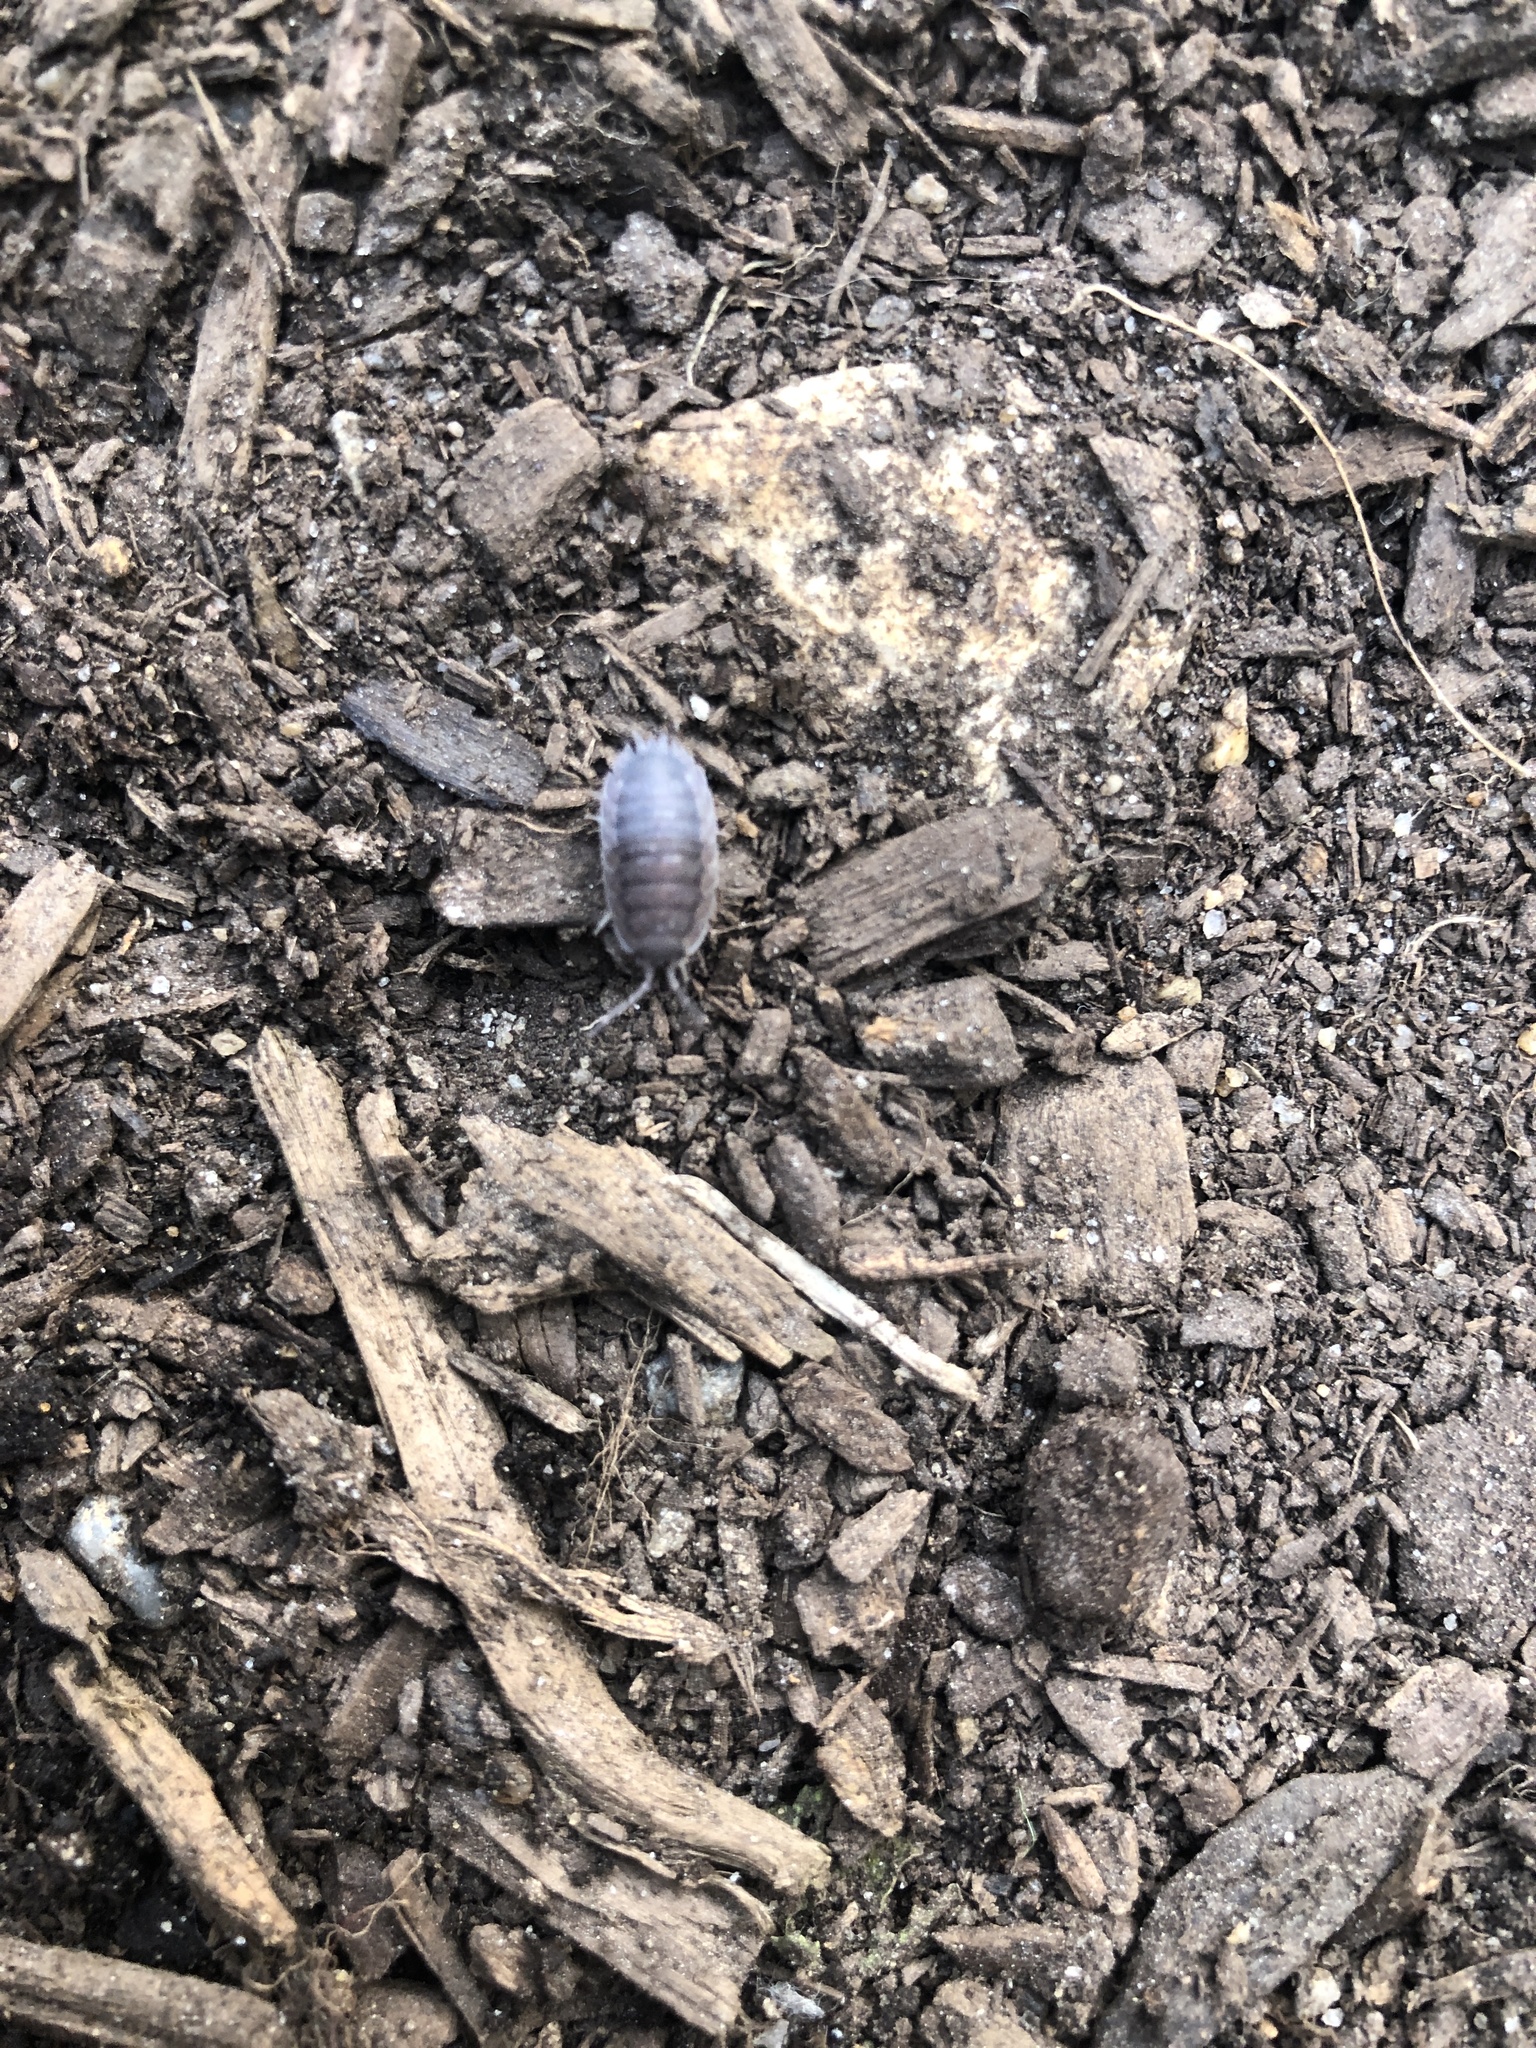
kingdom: Animalia
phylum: Arthropoda
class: Malacostraca
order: Isopoda
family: Porcellionidae
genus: Porcellio
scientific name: Porcellio scaber
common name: Common rough woodlouse
